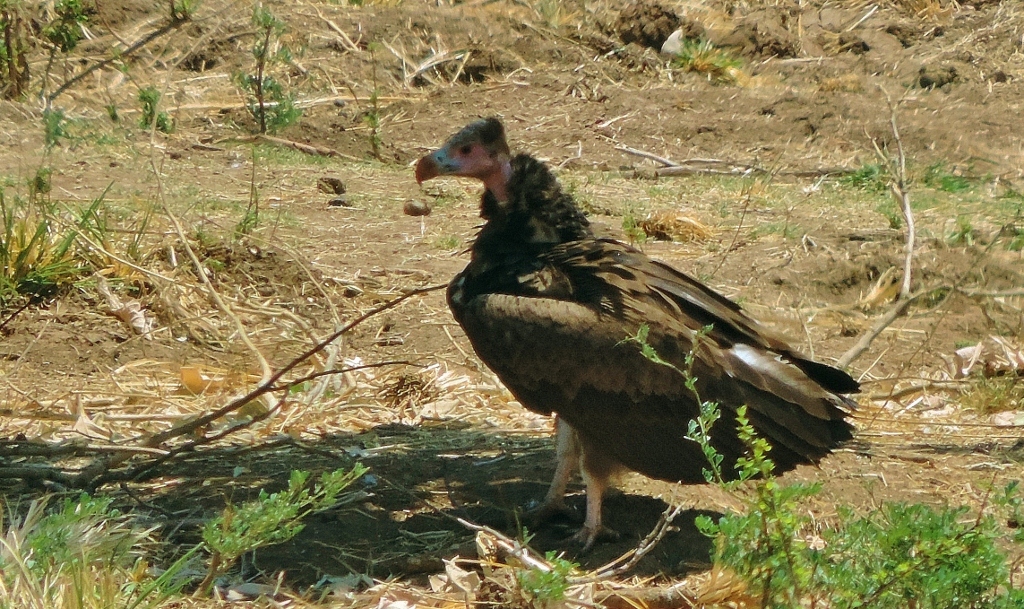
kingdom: Animalia
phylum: Chordata
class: Aves
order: Accipitriformes
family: Accipitridae
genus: Trigonoceps
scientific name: Trigonoceps occipitalis
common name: White-headed vulture
